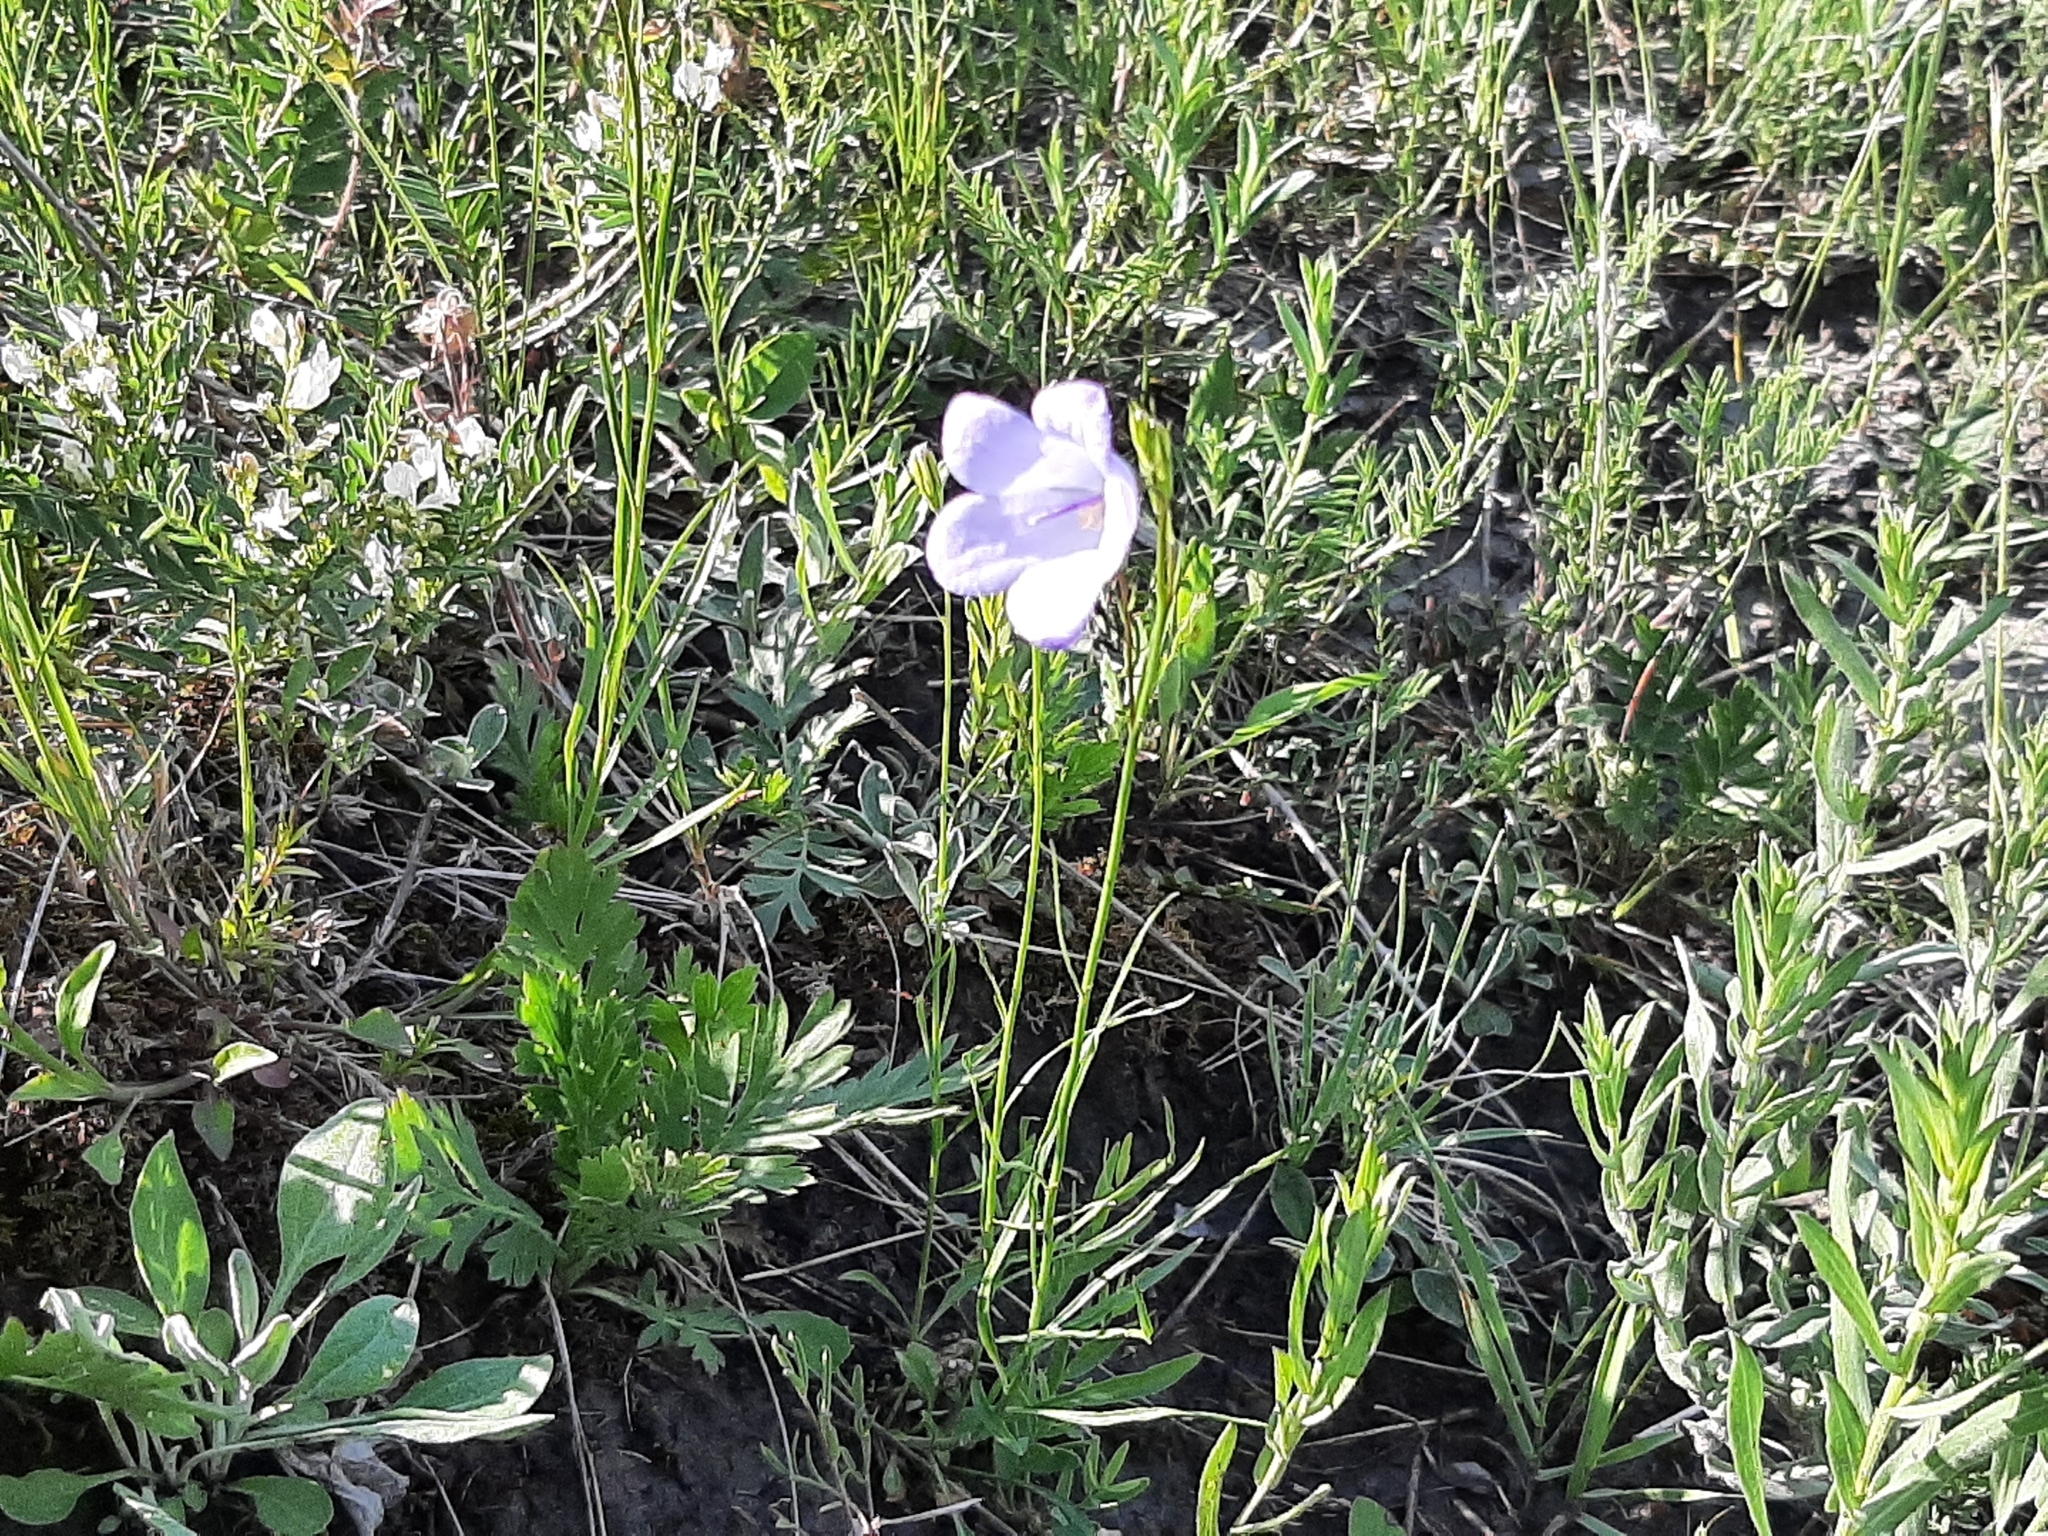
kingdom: Plantae
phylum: Tracheophyta
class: Magnoliopsida
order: Asterales
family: Campanulaceae
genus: Campanula
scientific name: Campanula alaskana
